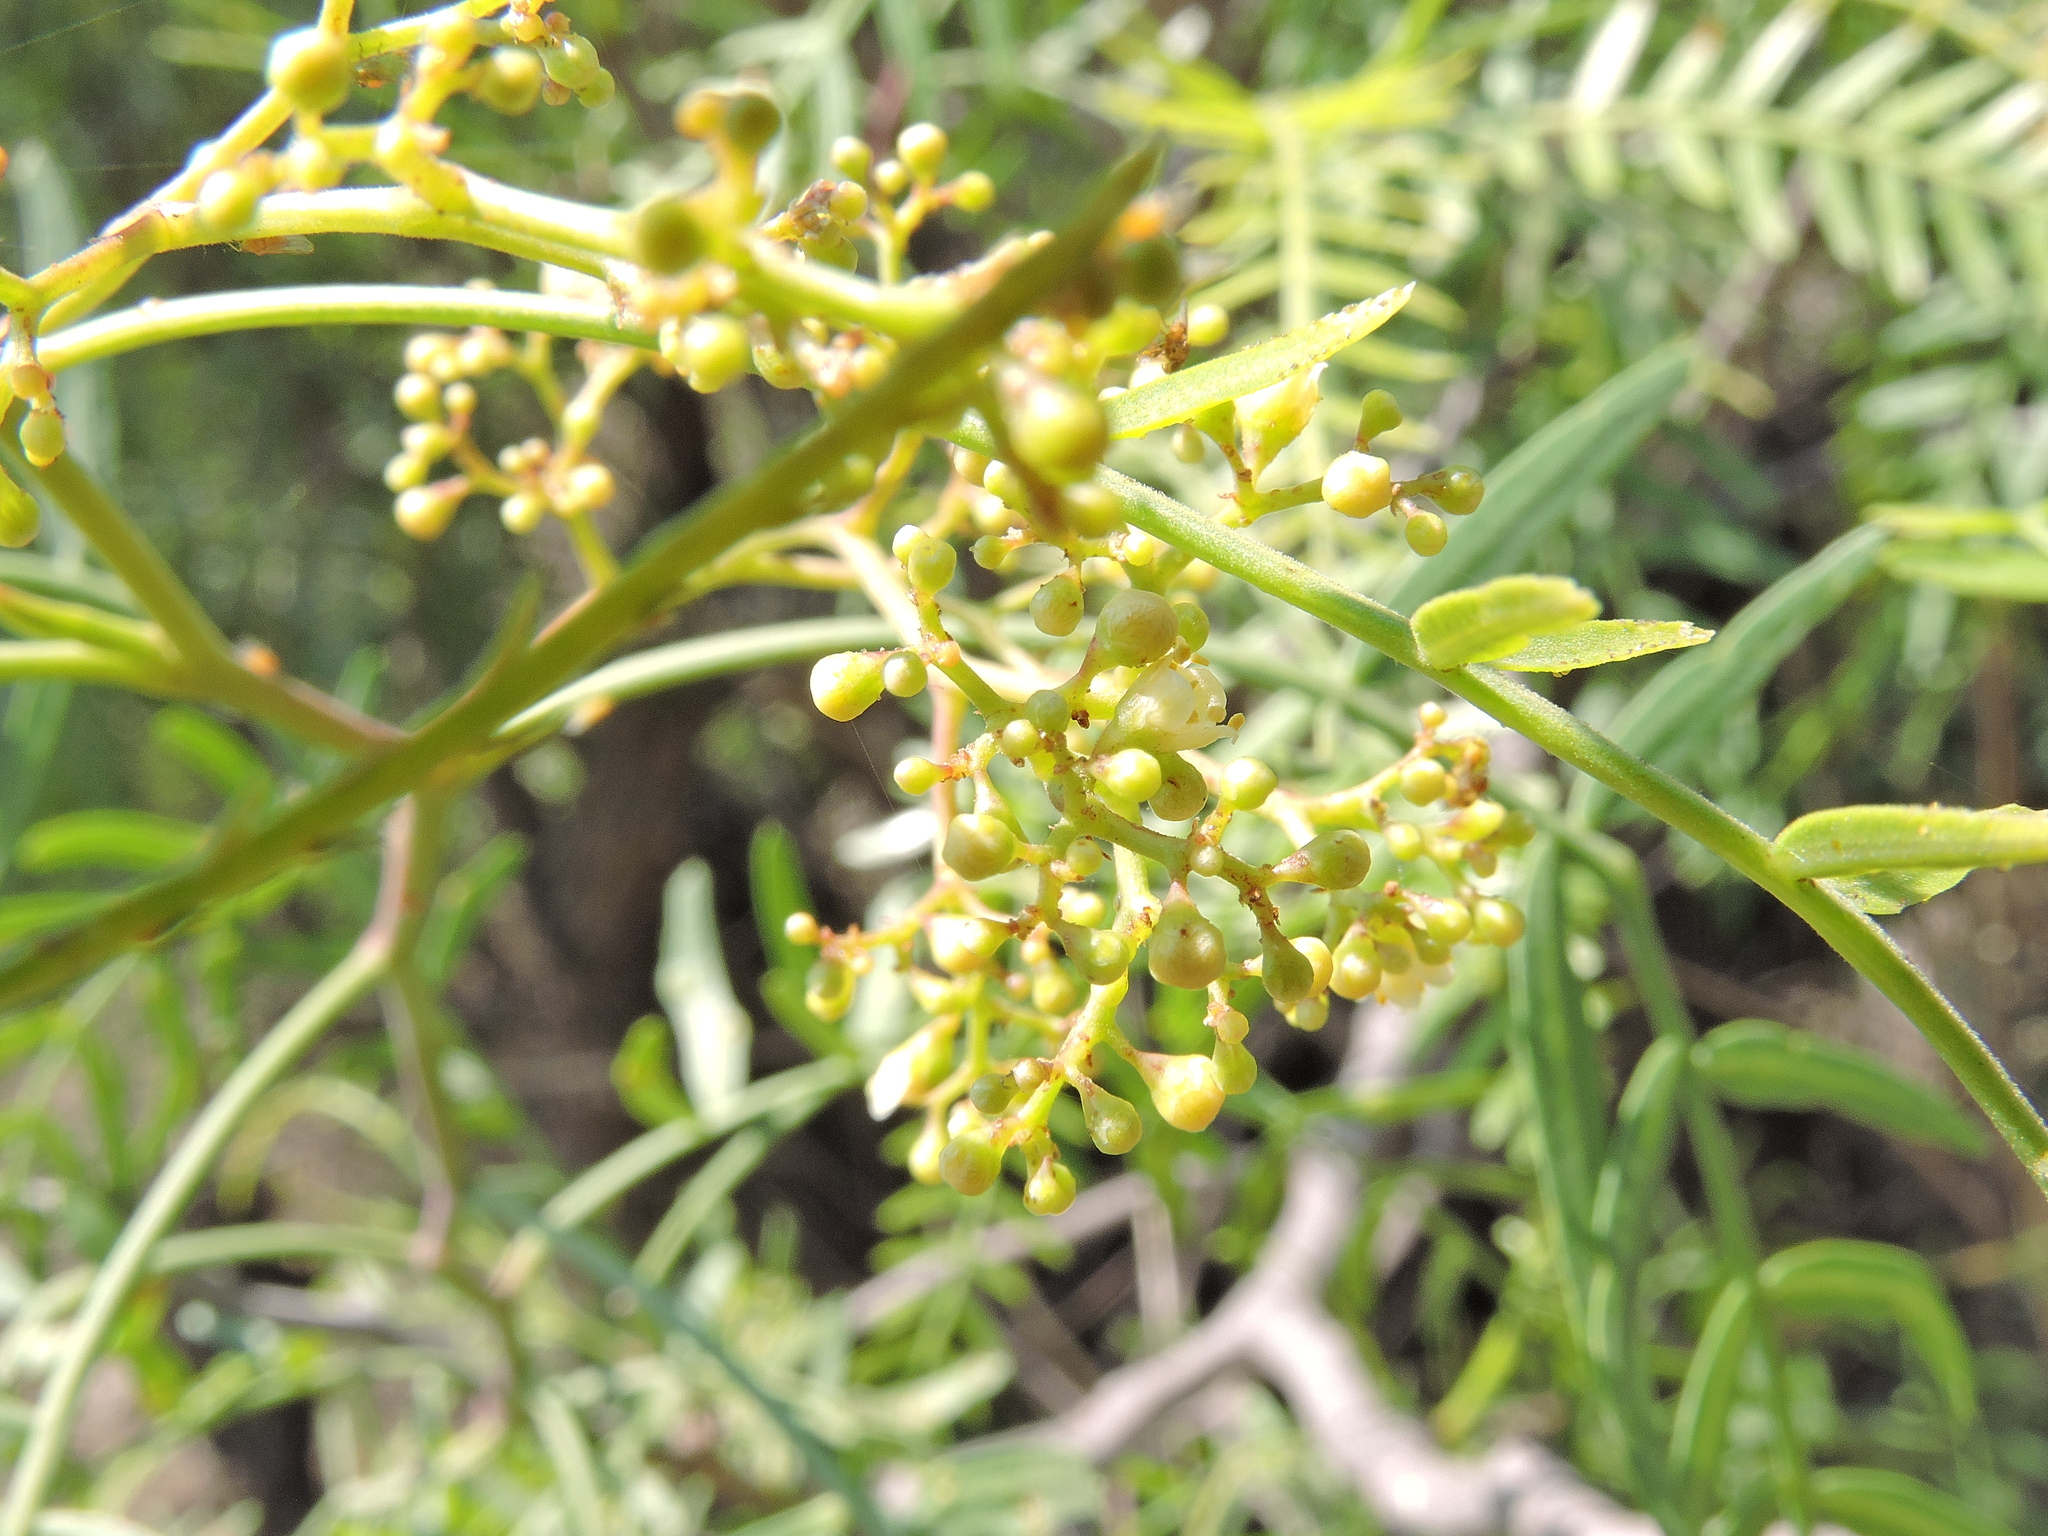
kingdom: Plantae
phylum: Tracheophyta
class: Magnoliopsida
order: Sapindales
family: Anacardiaceae
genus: Schinus
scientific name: Schinus molle
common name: Peruvian peppertree
